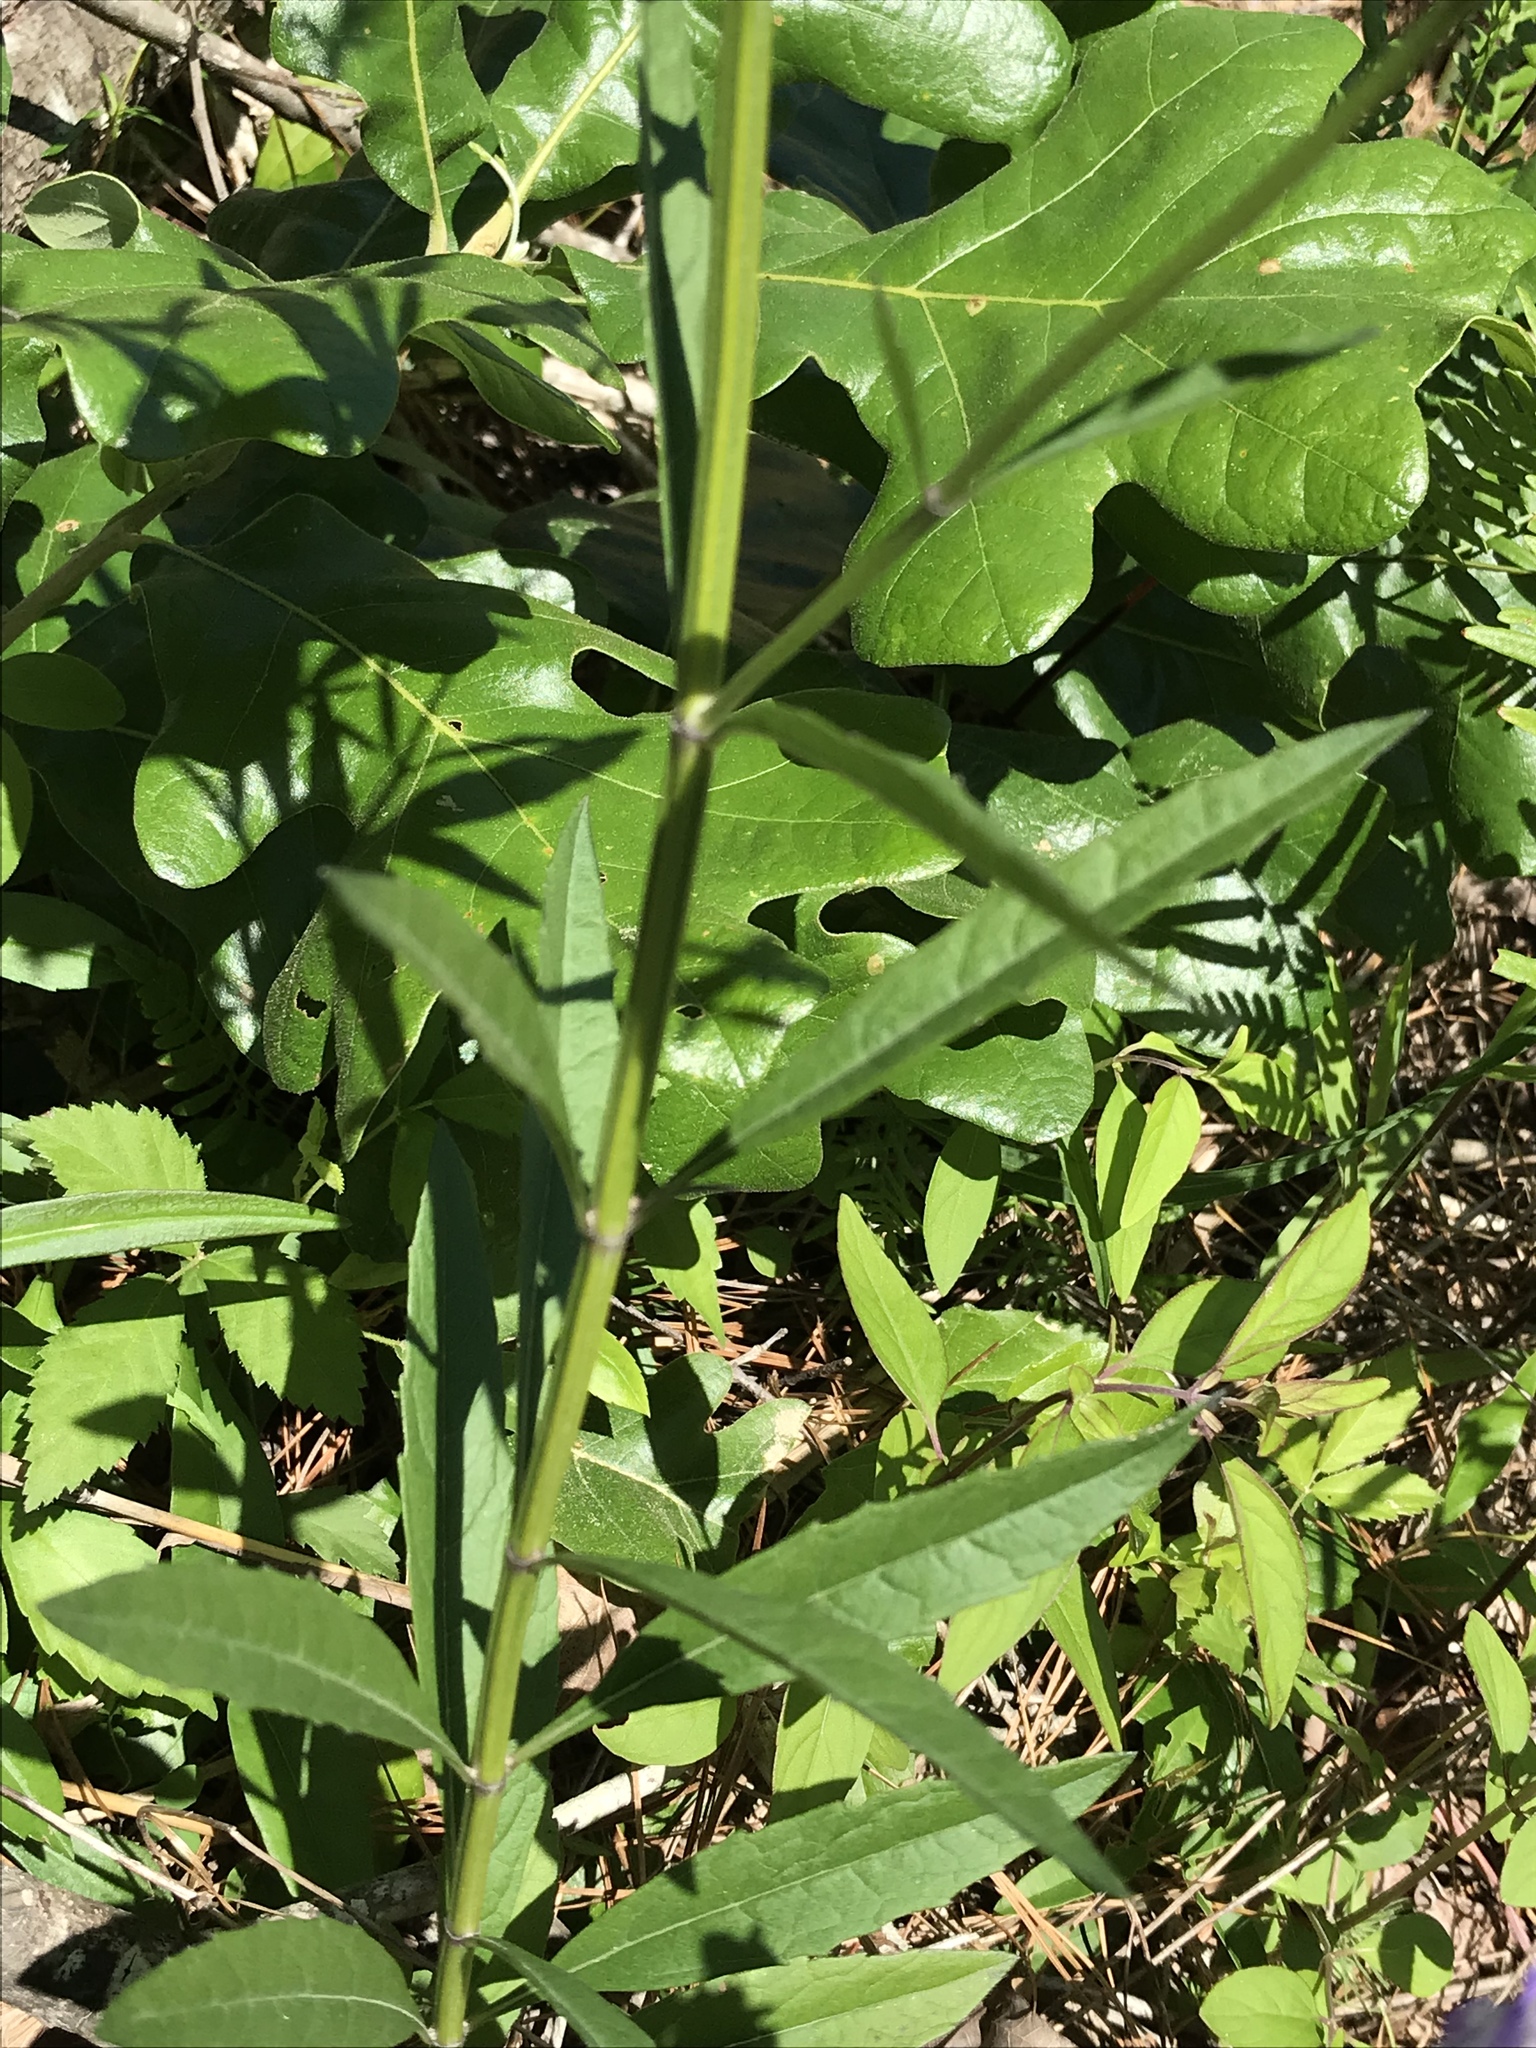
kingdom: Plantae
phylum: Tracheophyta
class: Magnoliopsida
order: Lamiales
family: Lamiaceae
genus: Salvia
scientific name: Salvia azurea
